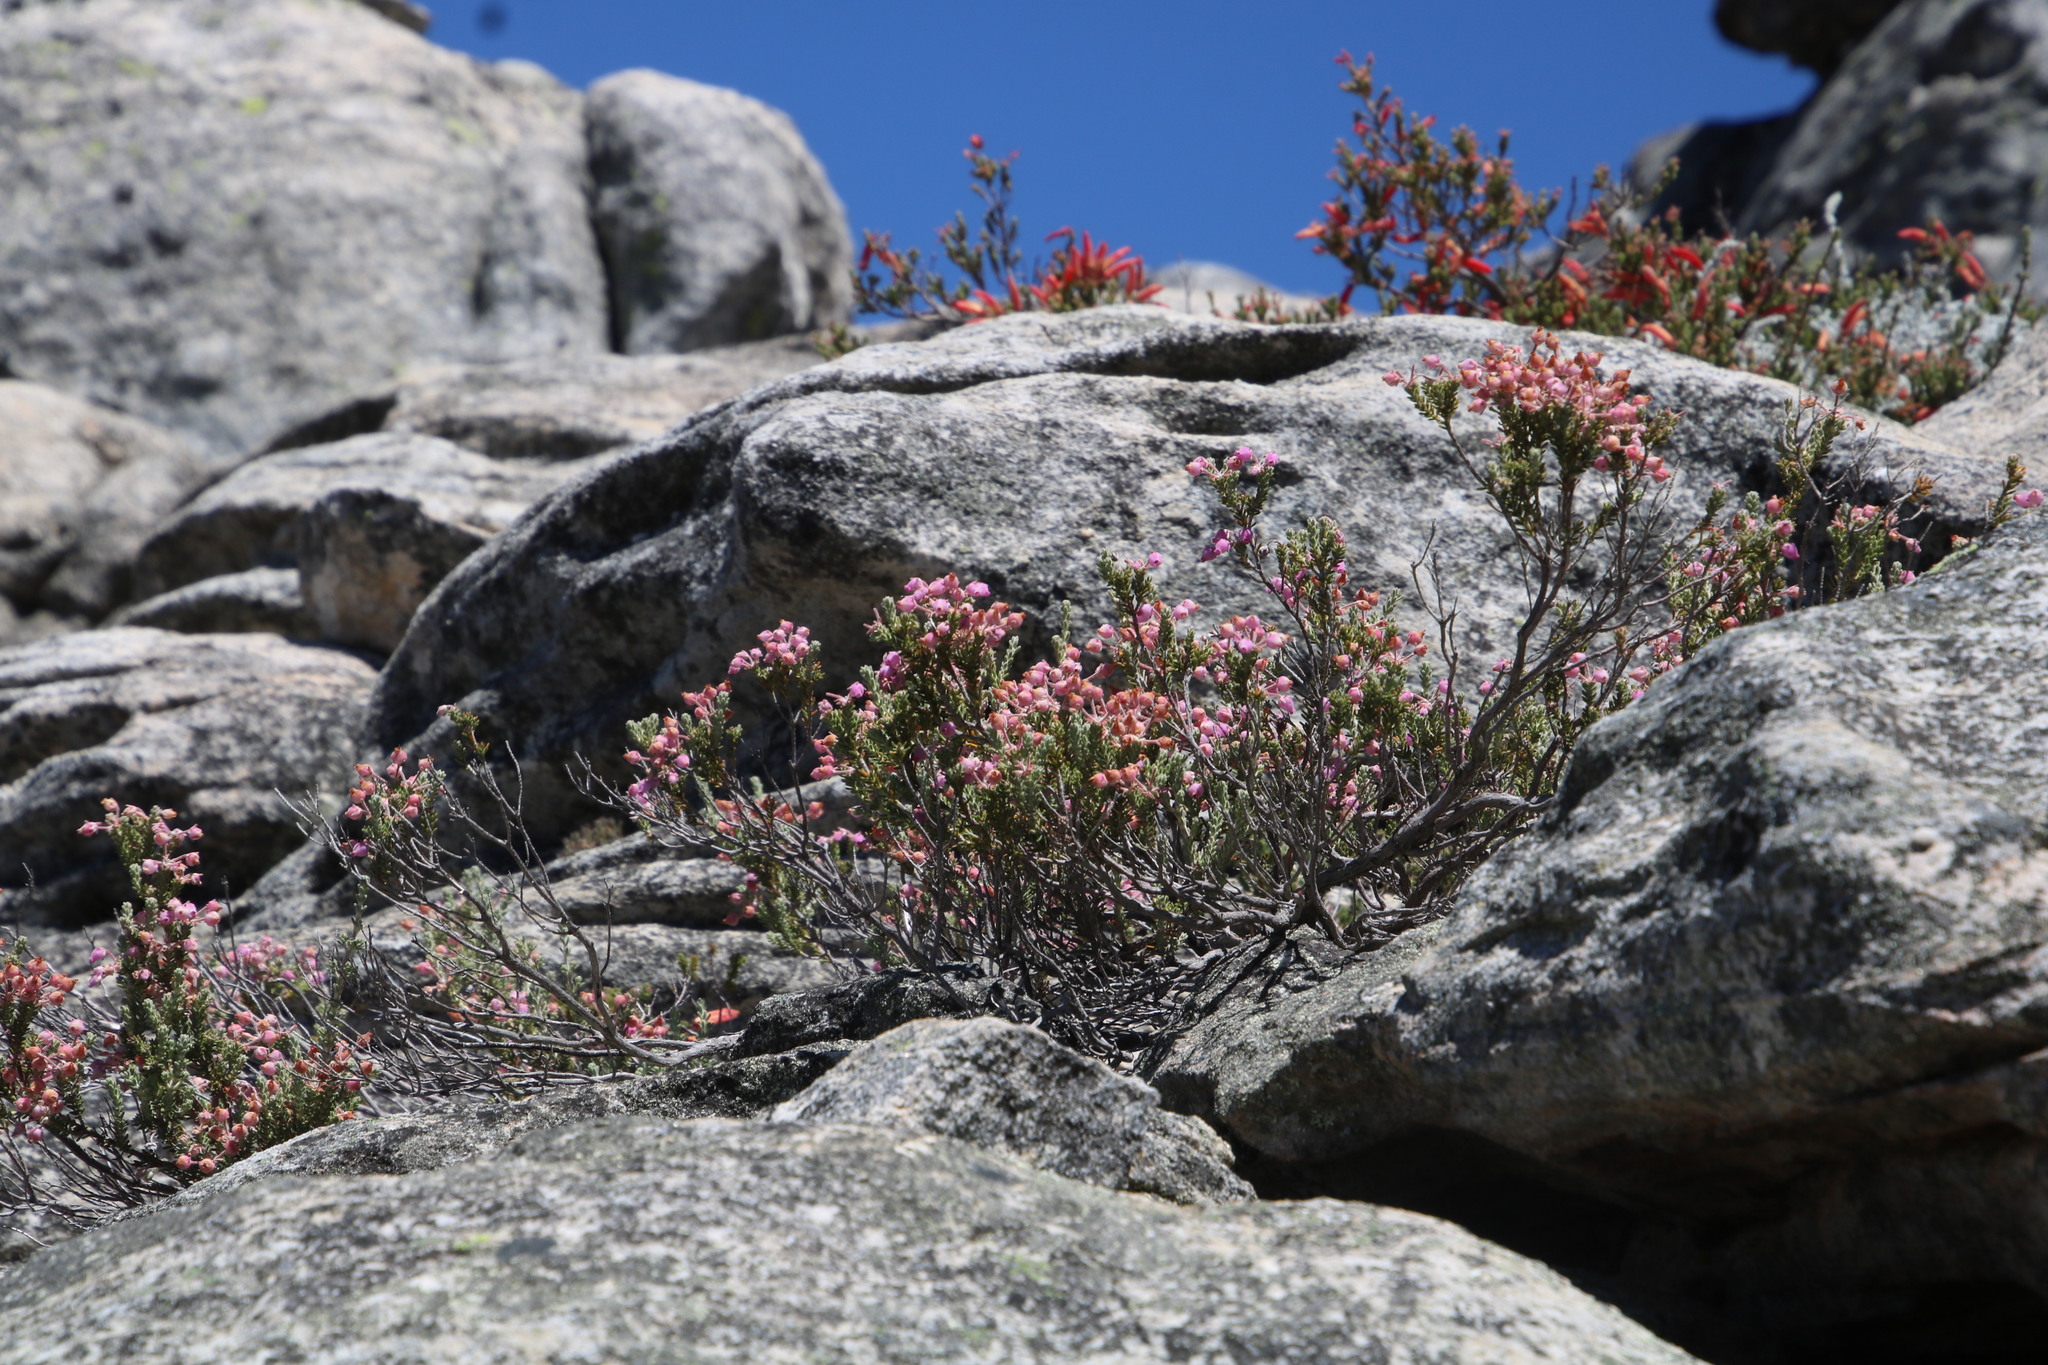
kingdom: Plantae
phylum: Tracheophyta
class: Magnoliopsida
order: Ericales
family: Ericaceae
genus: Erica
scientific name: Erica oresigena
